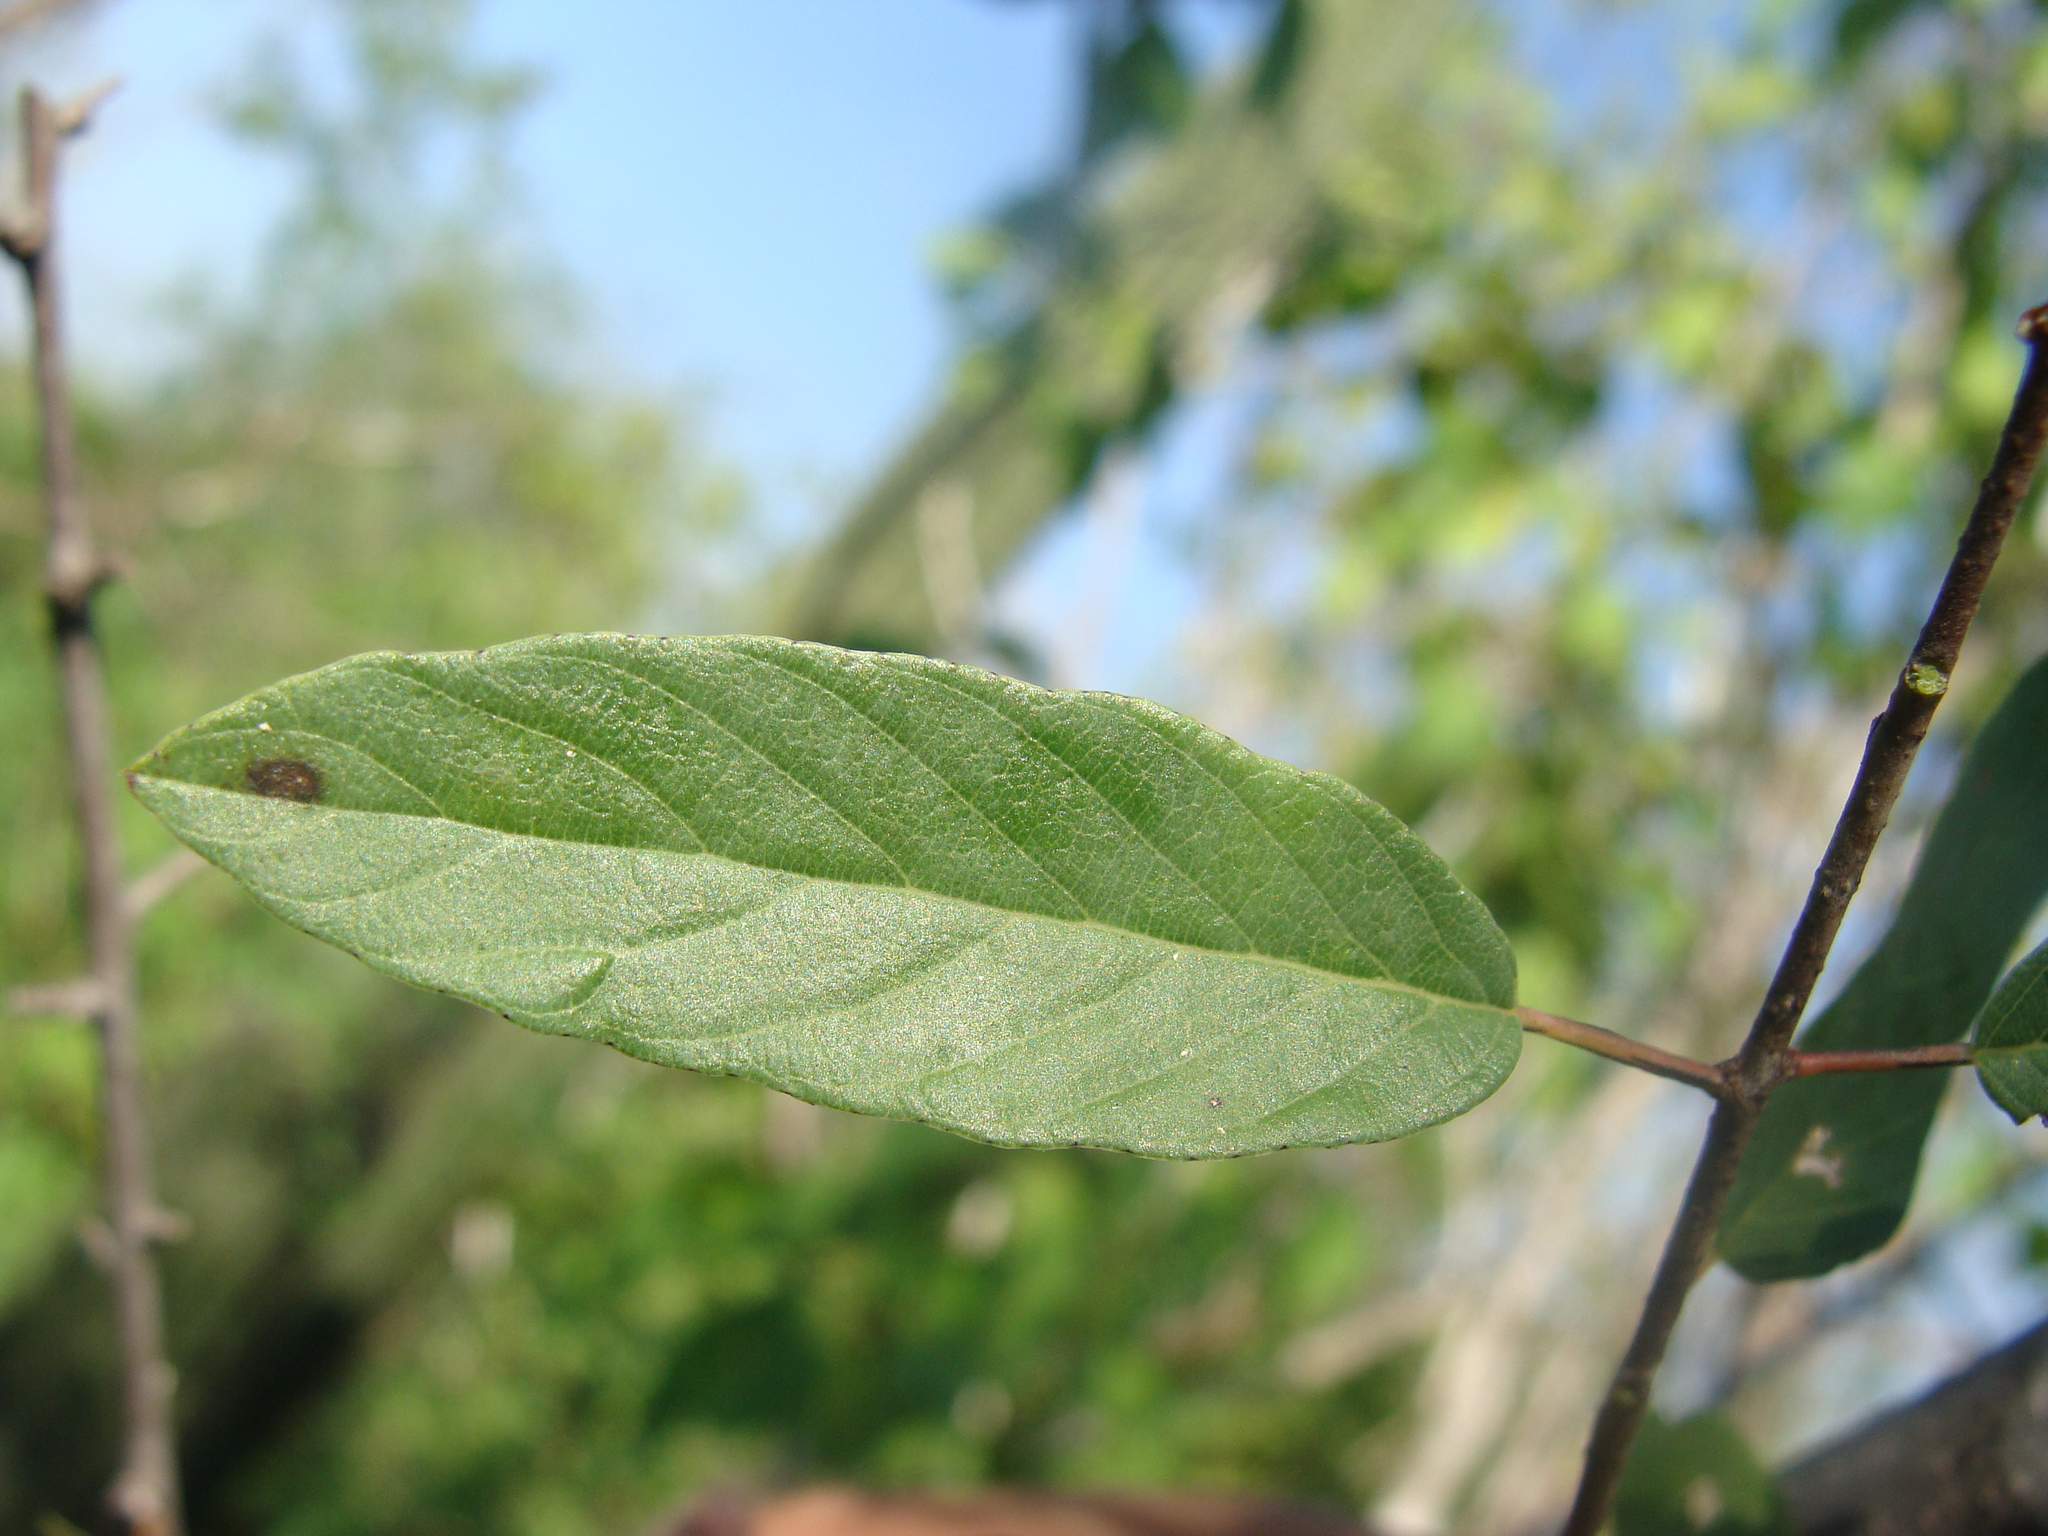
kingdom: Plantae
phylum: Tracheophyta
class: Magnoliopsida
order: Rosales
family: Rhamnaceae
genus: Karwinskia
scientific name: Karwinskia parvifolia
